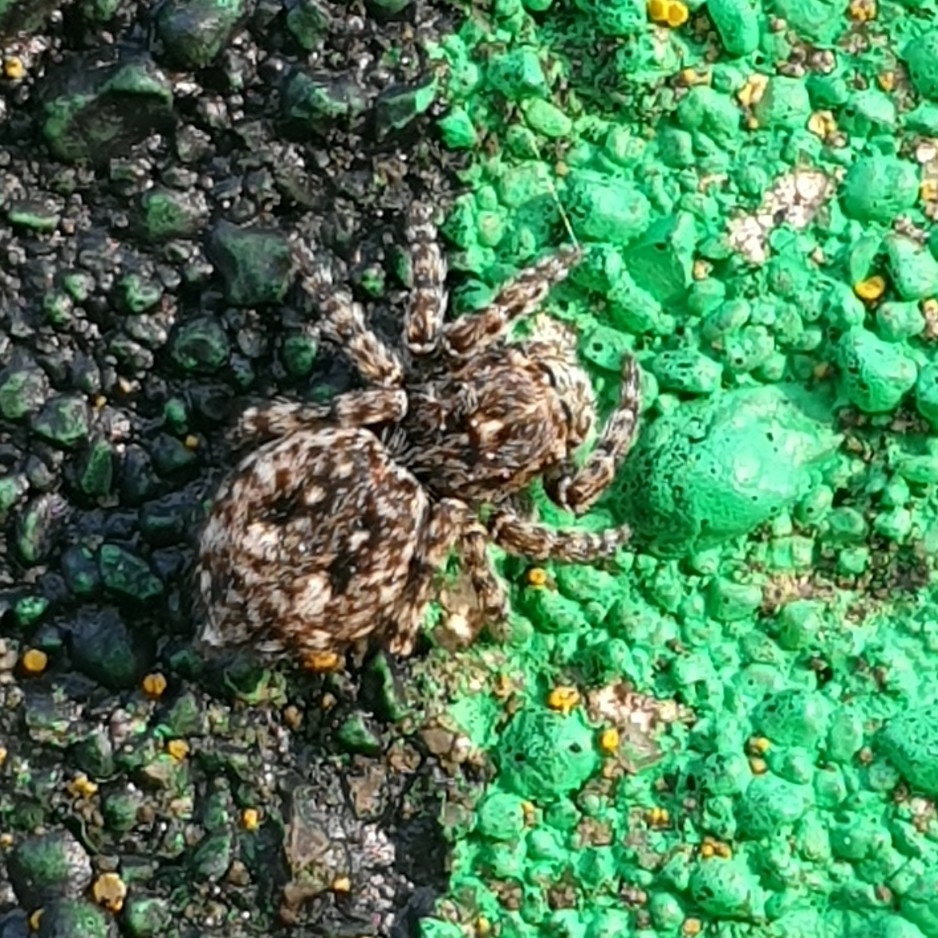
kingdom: Animalia
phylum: Arthropoda
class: Arachnida
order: Araneae
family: Salticidae
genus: Attulus
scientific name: Attulus pubescens
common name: Jumping spider
